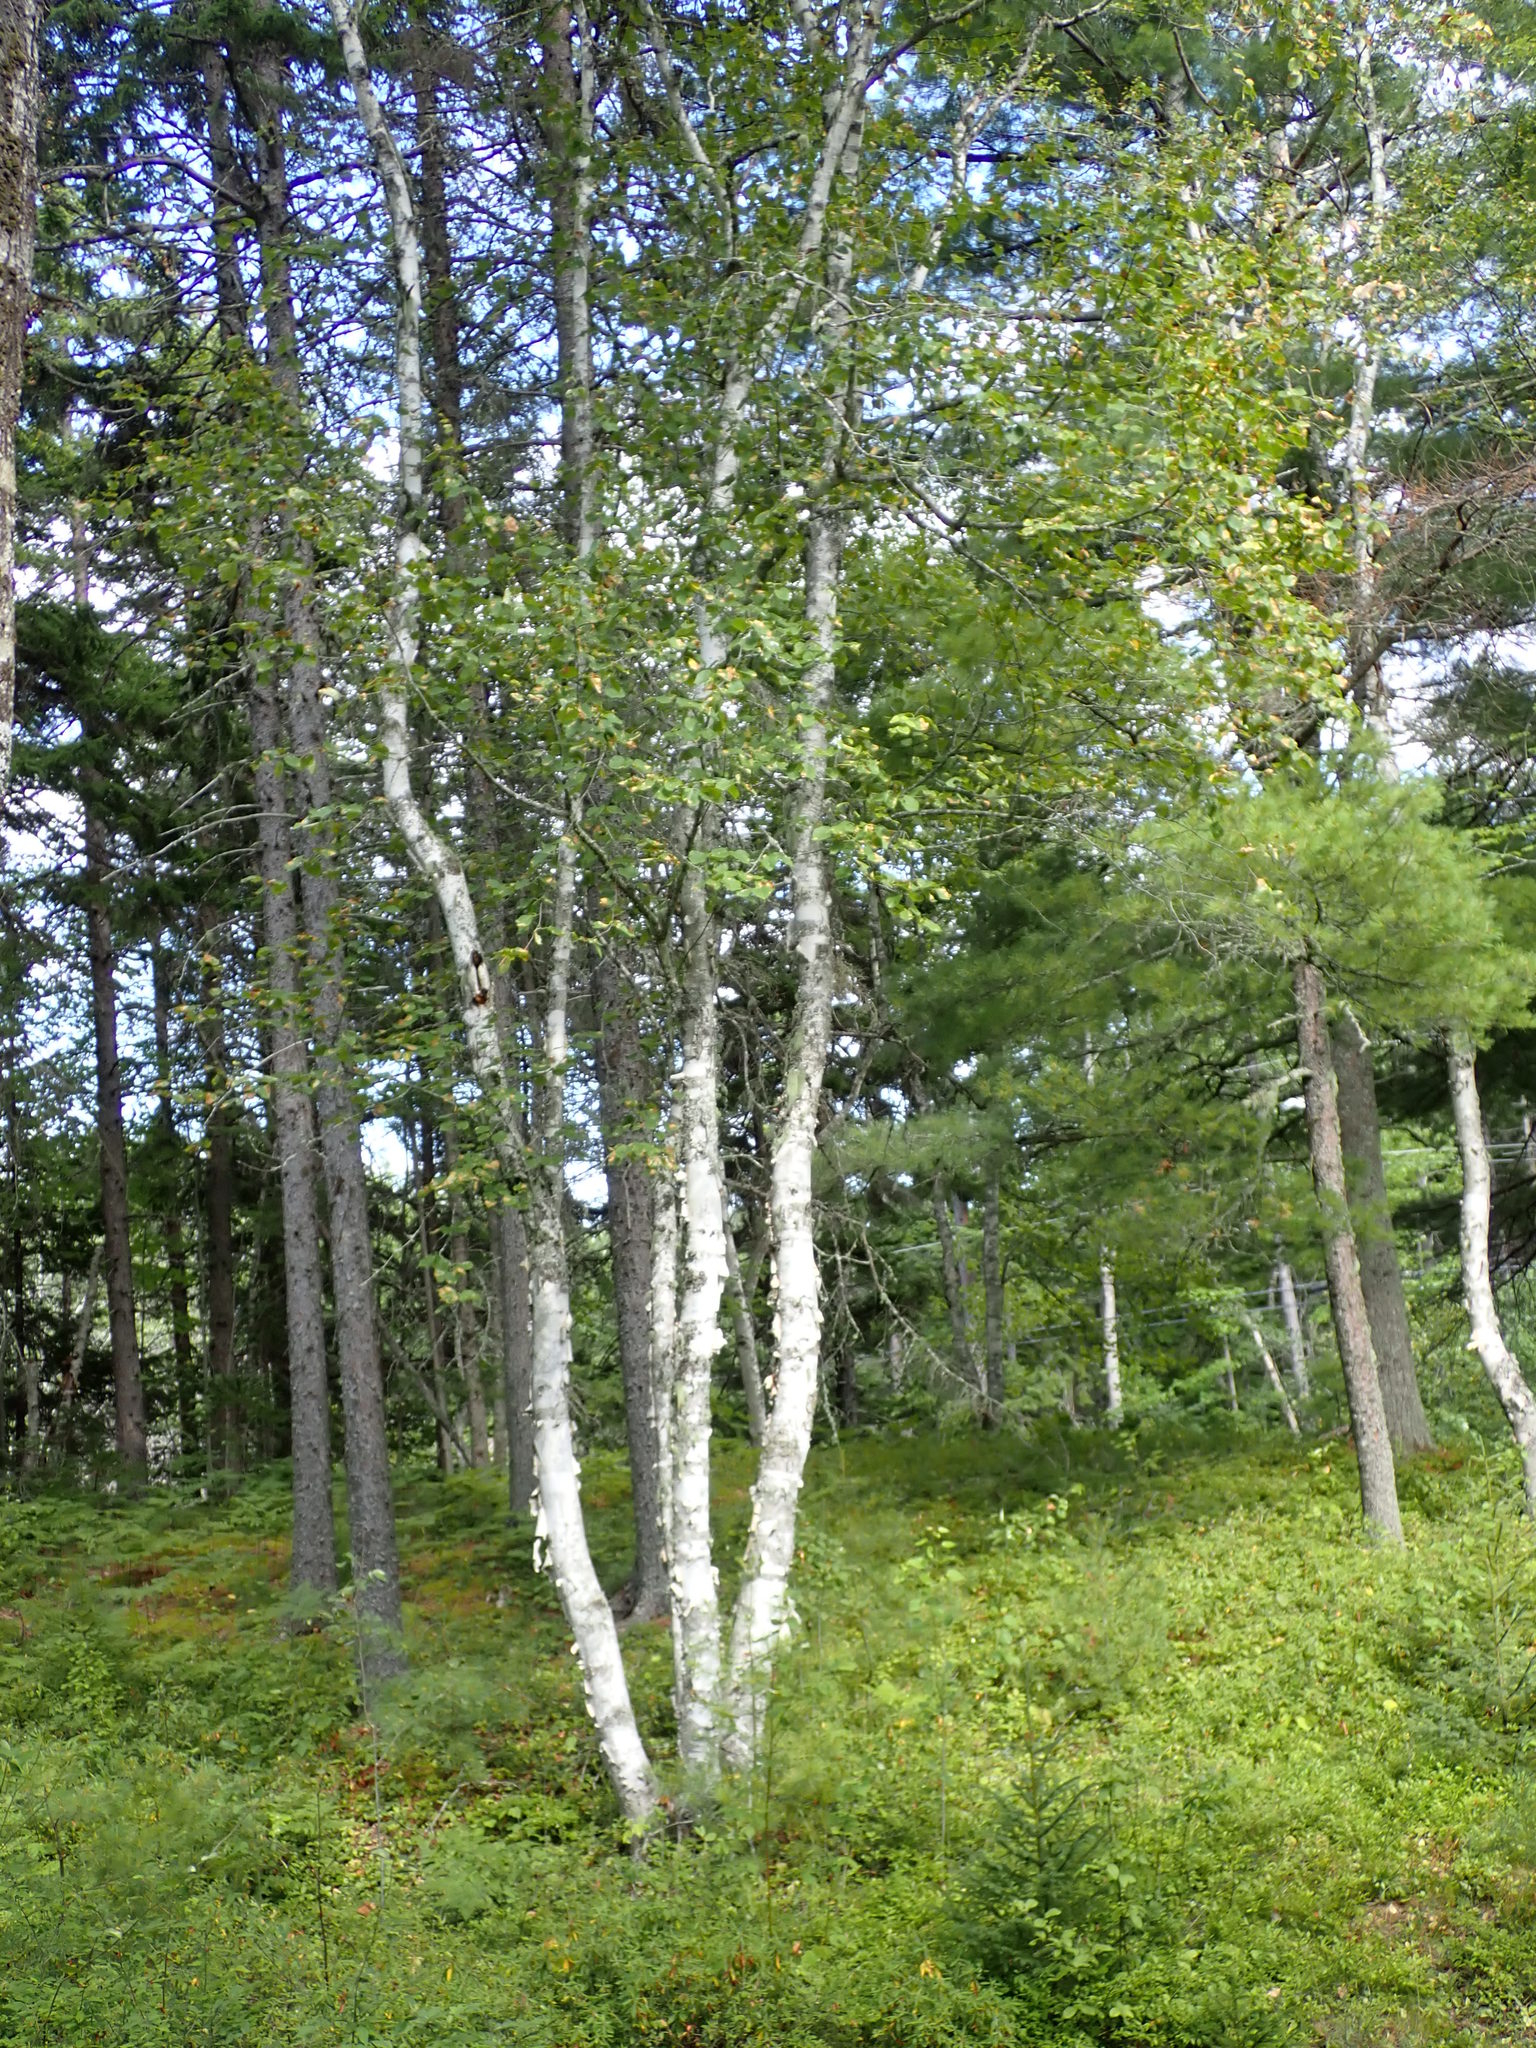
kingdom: Plantae
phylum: Tracheophyta
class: Magnoliopsida
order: Fagales
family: Betulaceae
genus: Betula
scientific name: Betula papyrifera
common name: Paper birch
